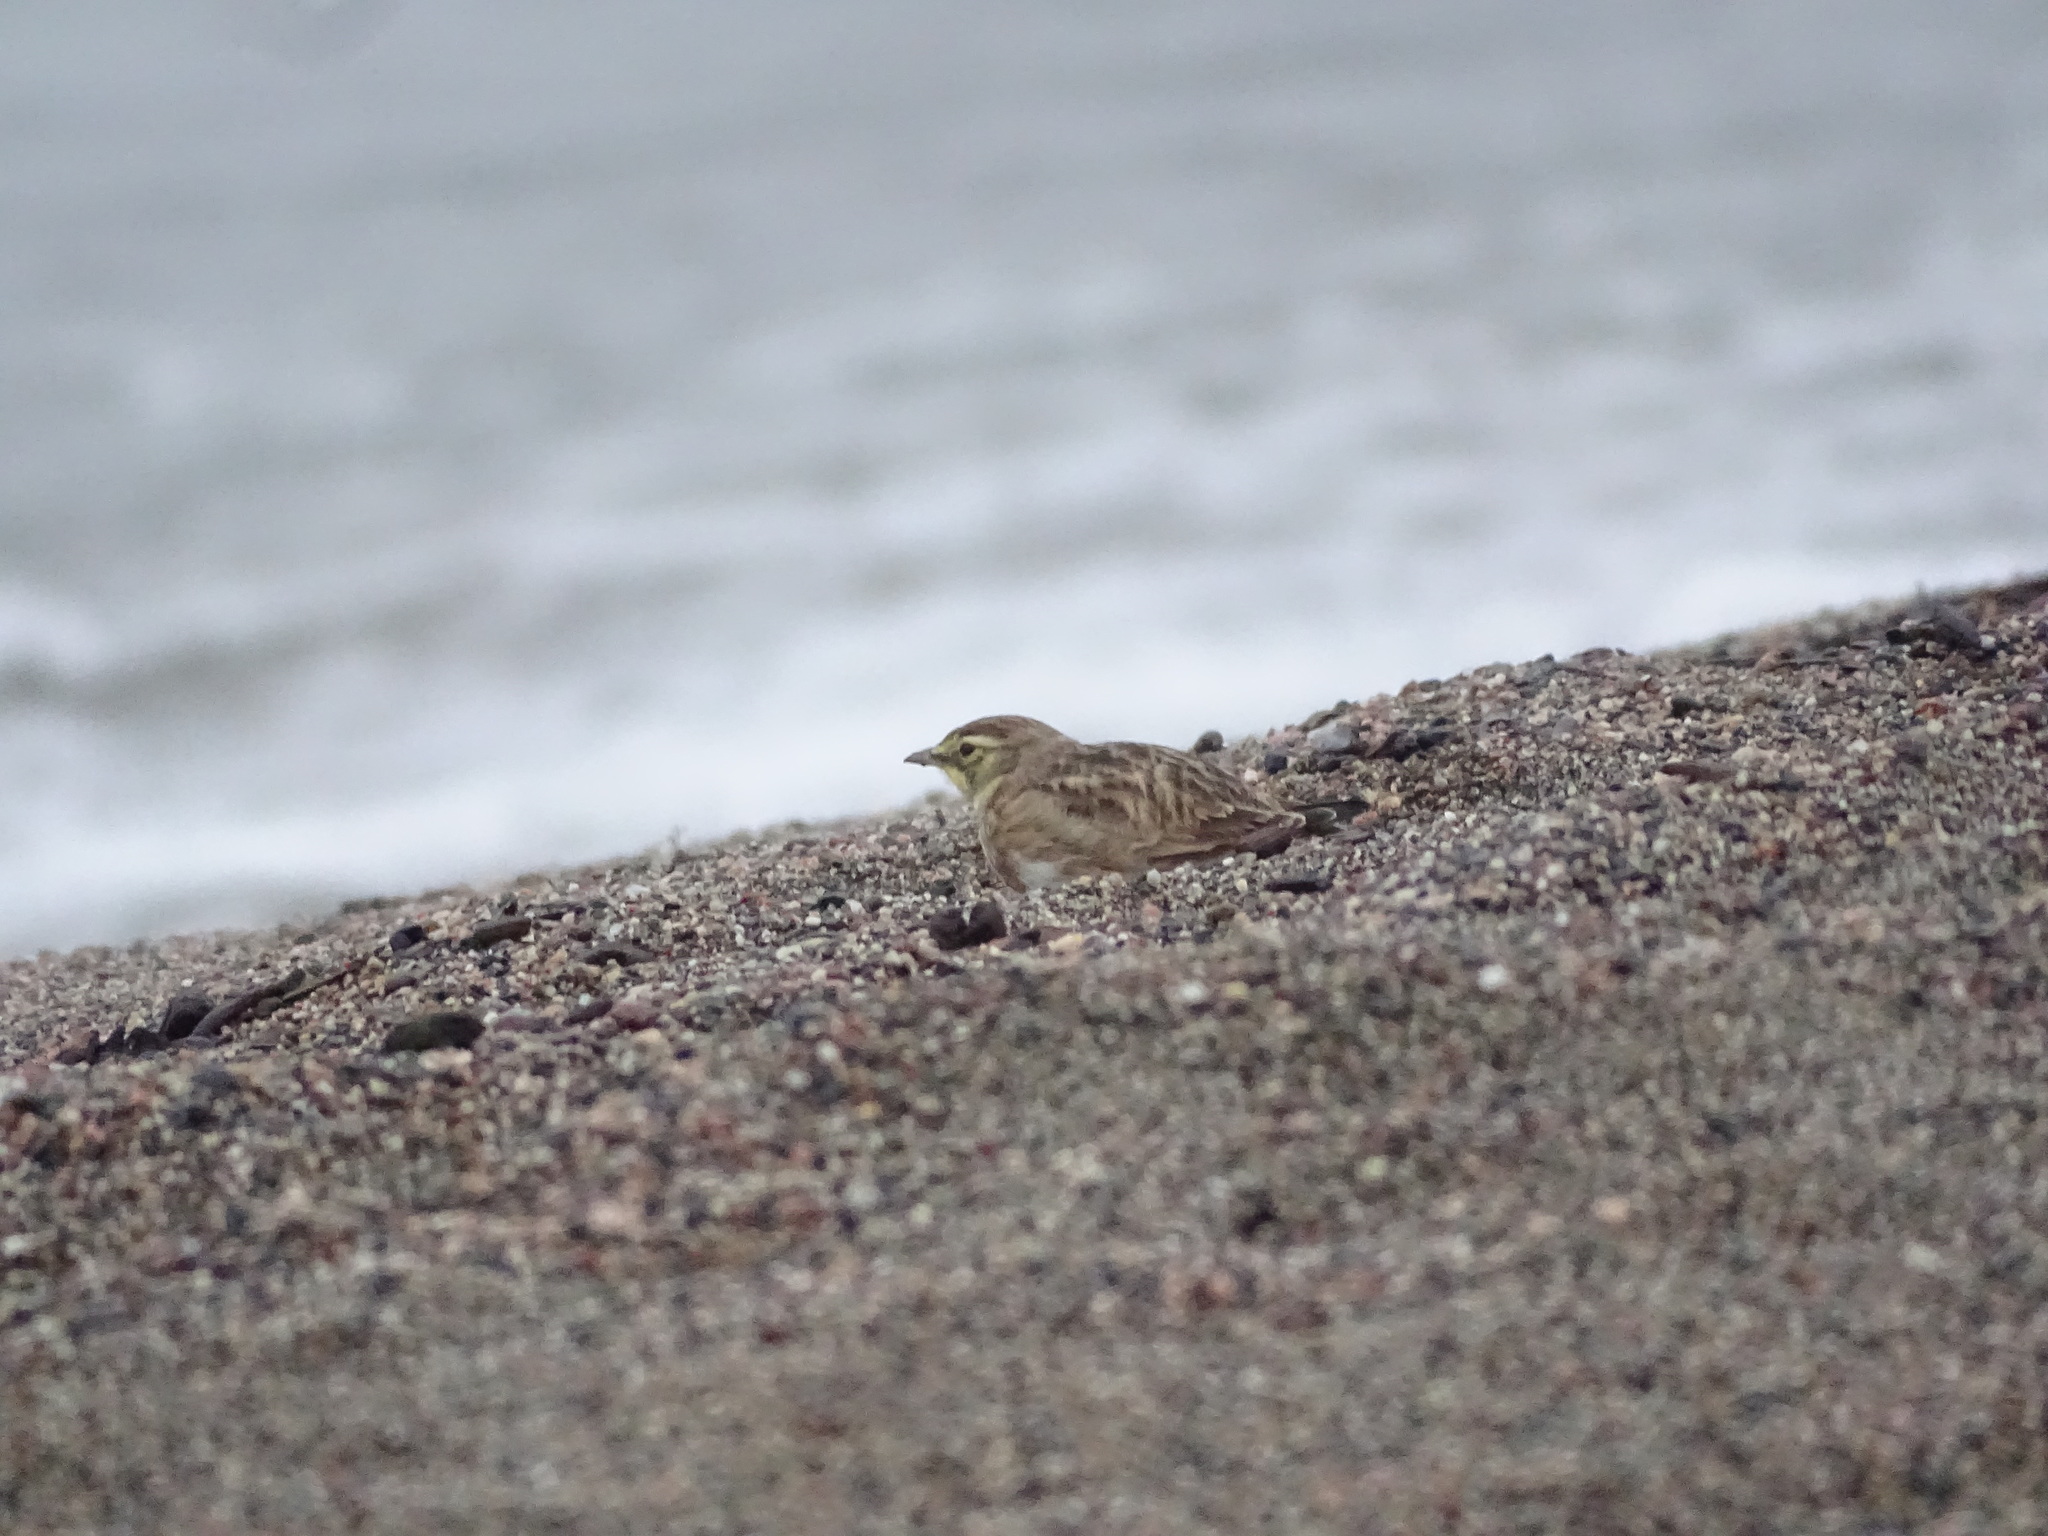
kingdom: Animalia
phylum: Chordata
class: Aves
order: Passeriformes
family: Alaudidae
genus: Eremophila
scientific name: Eremophila alpestris
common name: Horned lark
